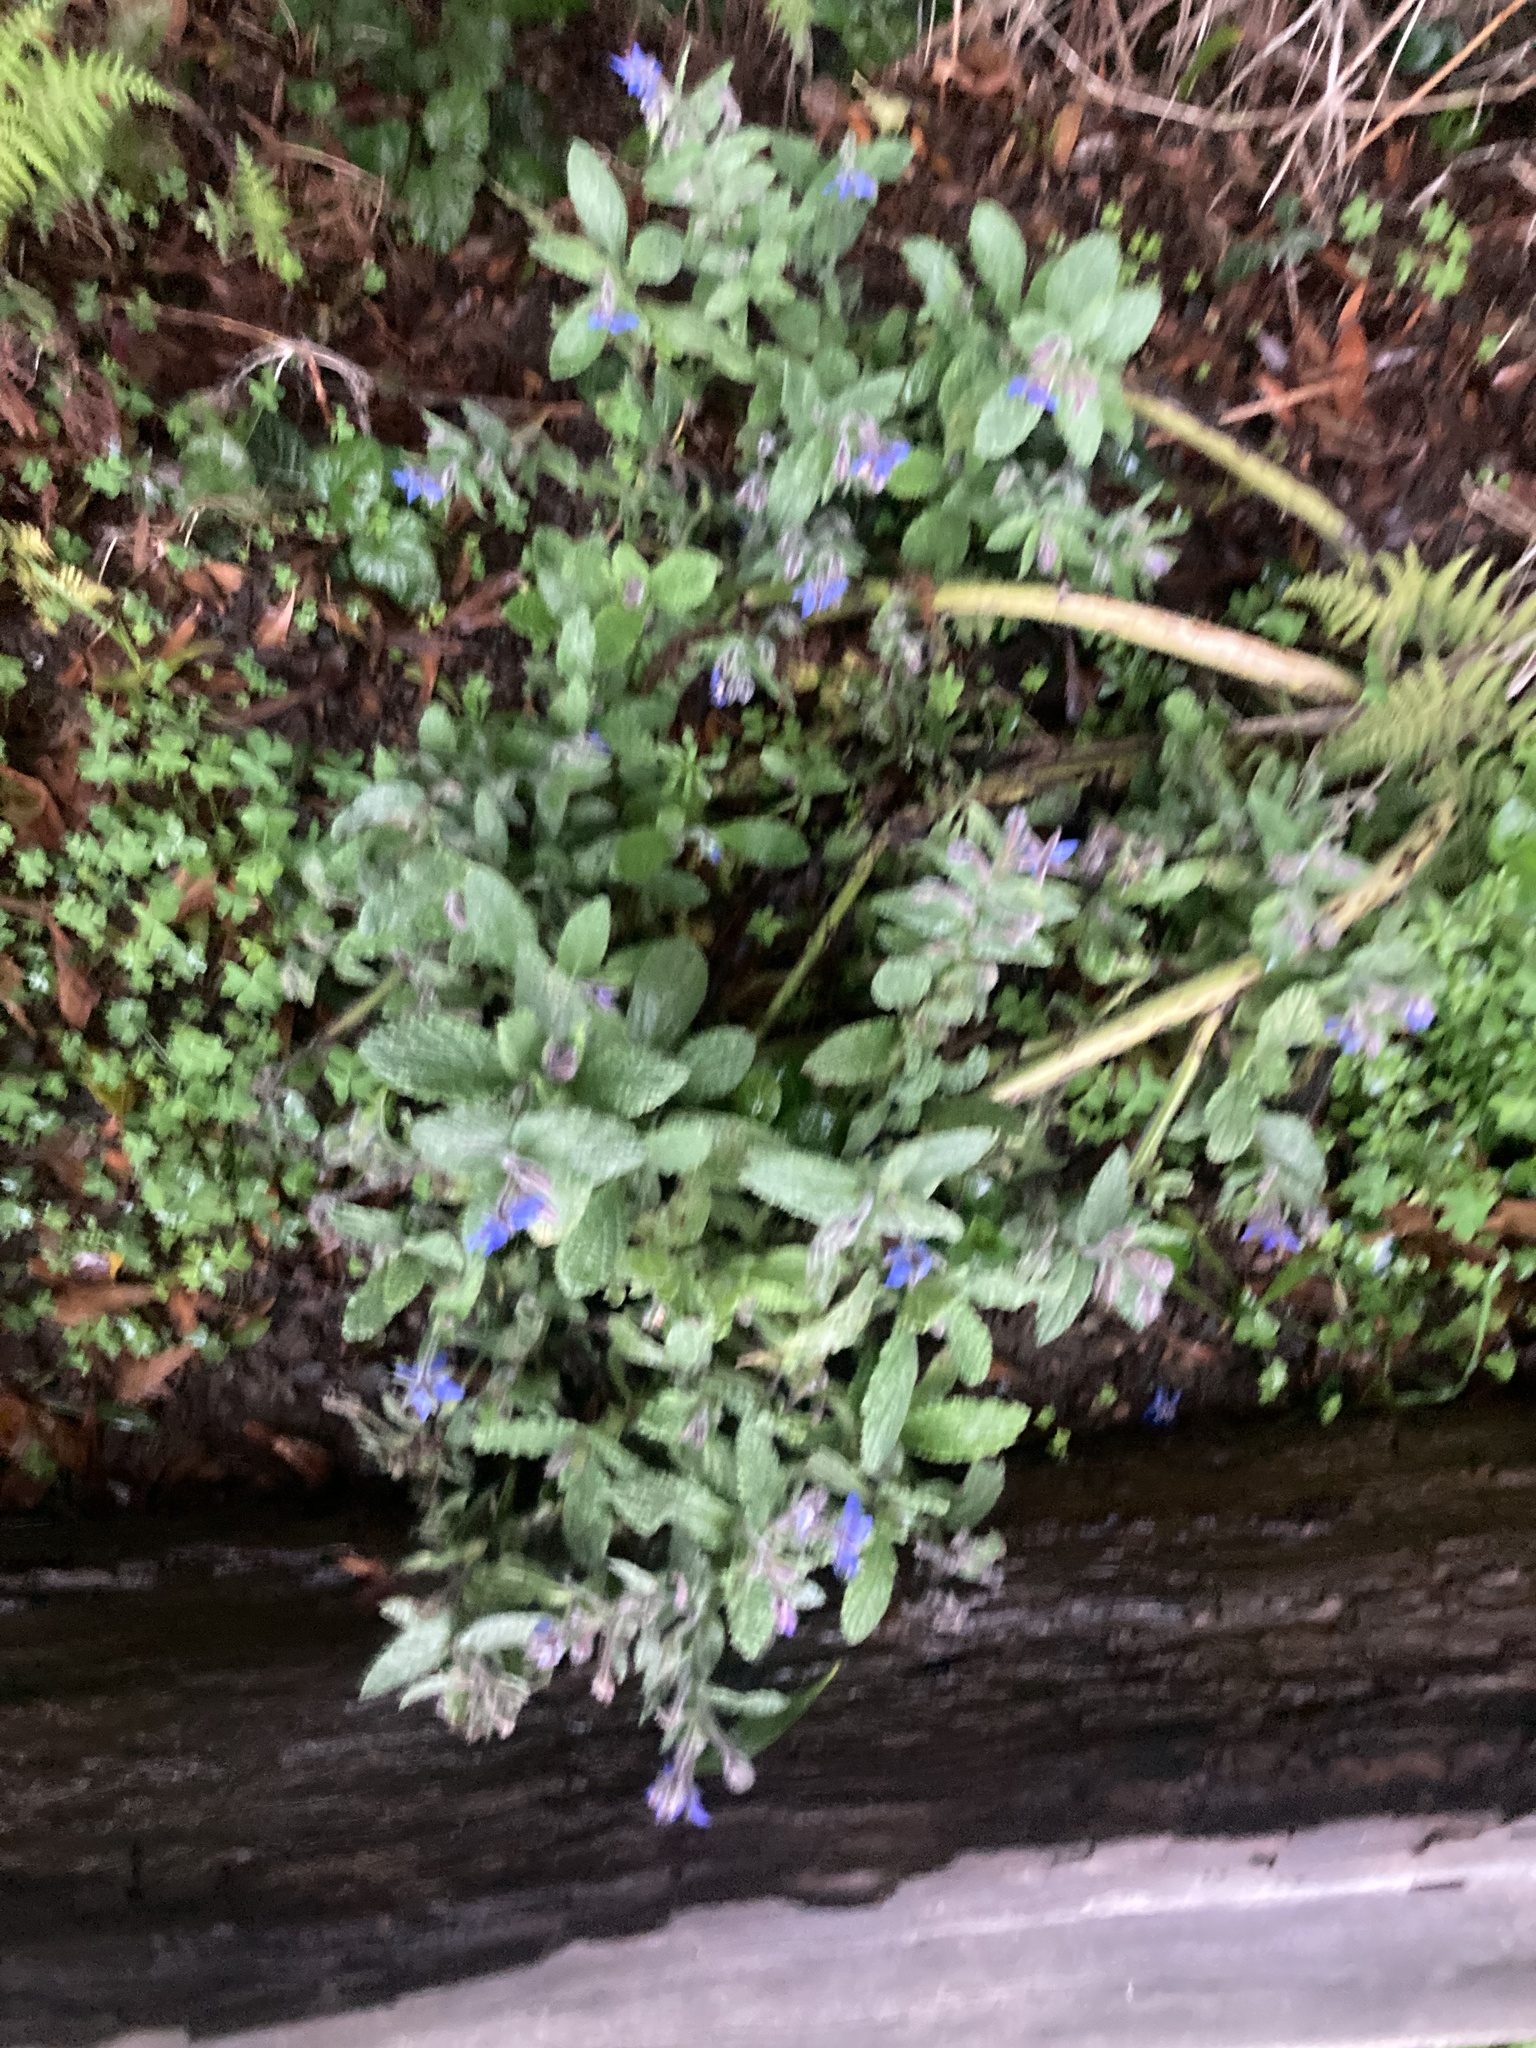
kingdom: Plantae
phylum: Tracheophyta
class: Magnoliopsida
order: Boraginales
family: Boraginaceae
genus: Borago
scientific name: Borago officinalis
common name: Borage
